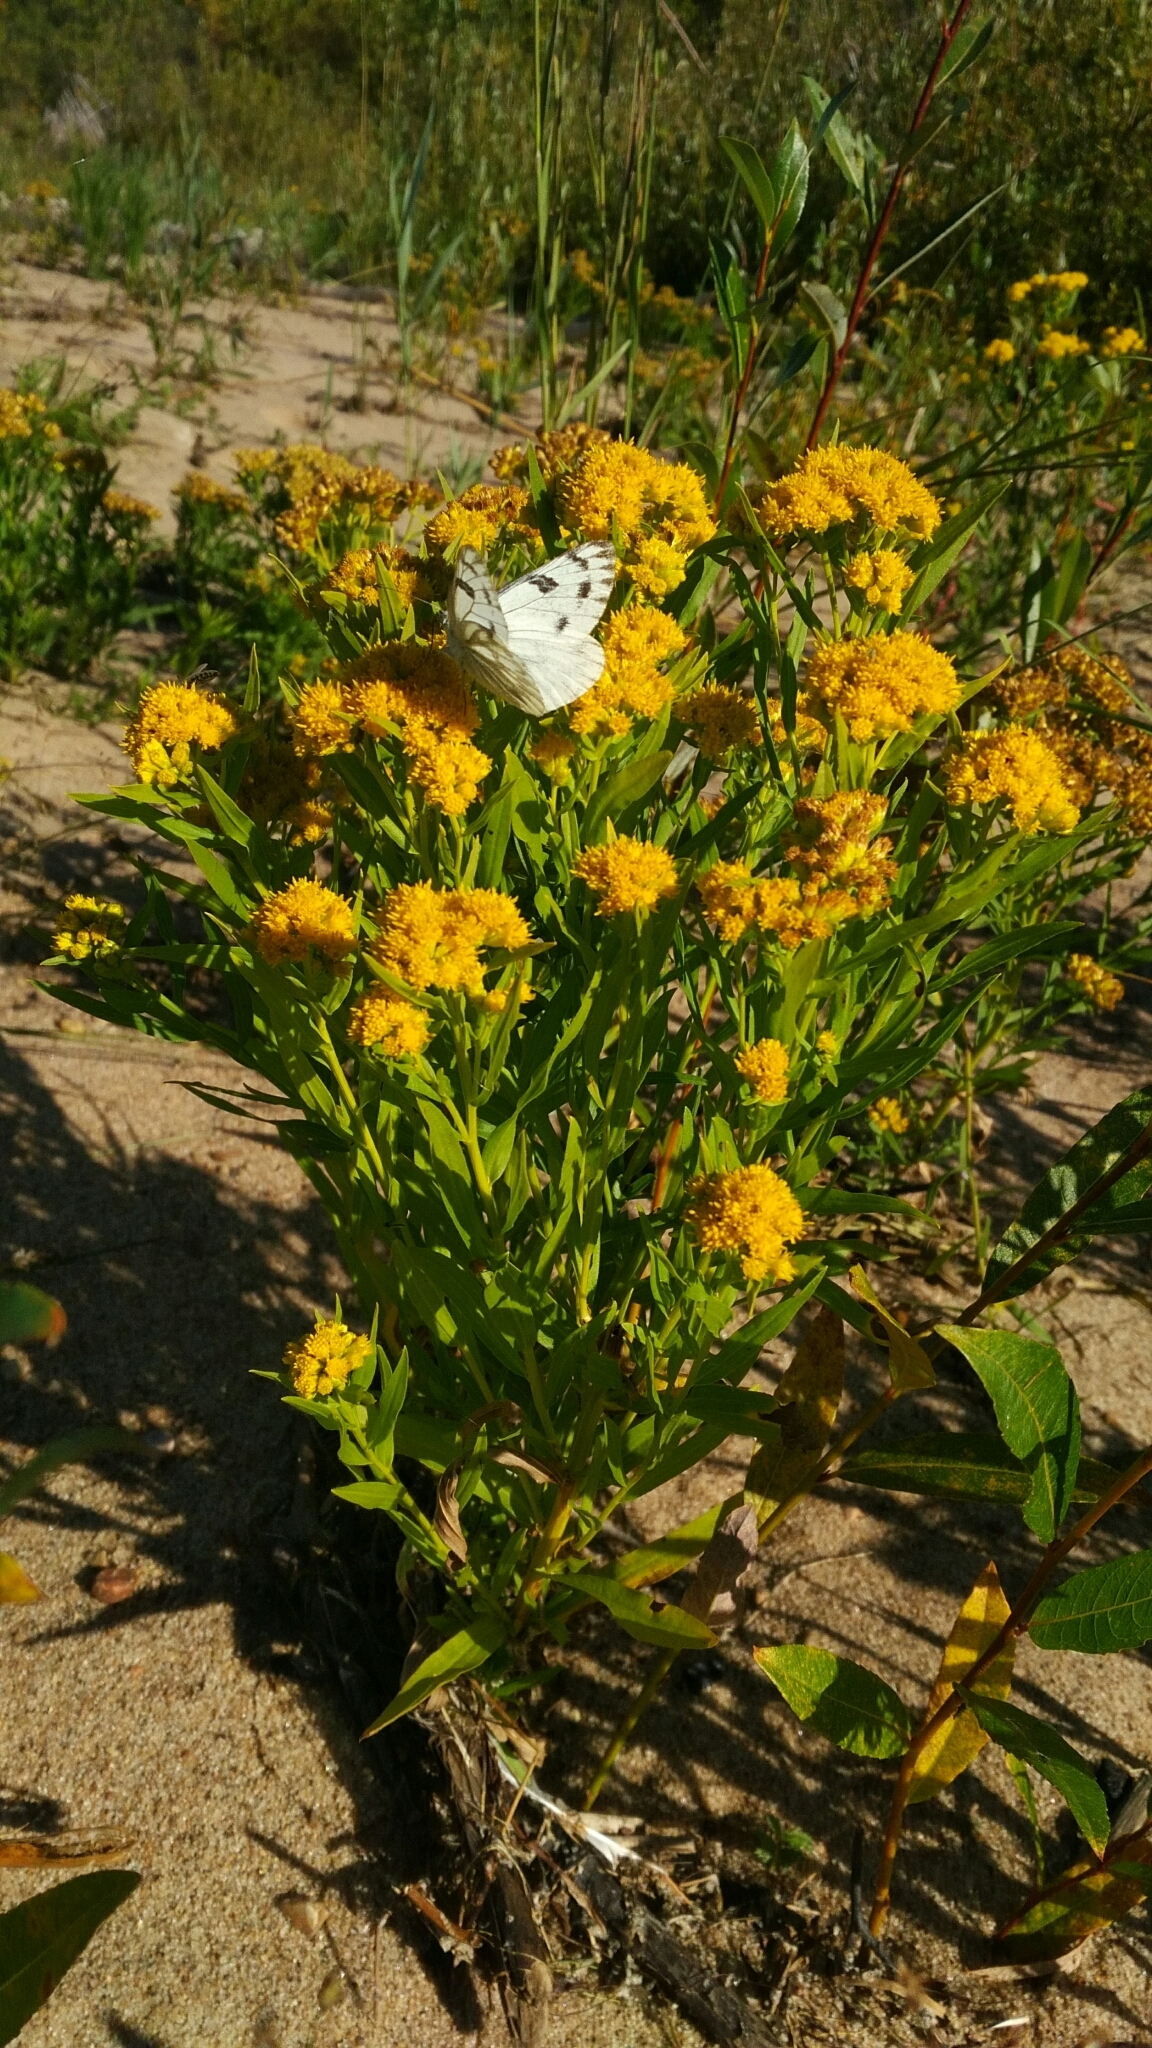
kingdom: Animalia
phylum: Arthropoda
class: Insecta
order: Lepidoptera
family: Pieridae
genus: Pontia
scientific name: Pontia occidentalis
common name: Western white
